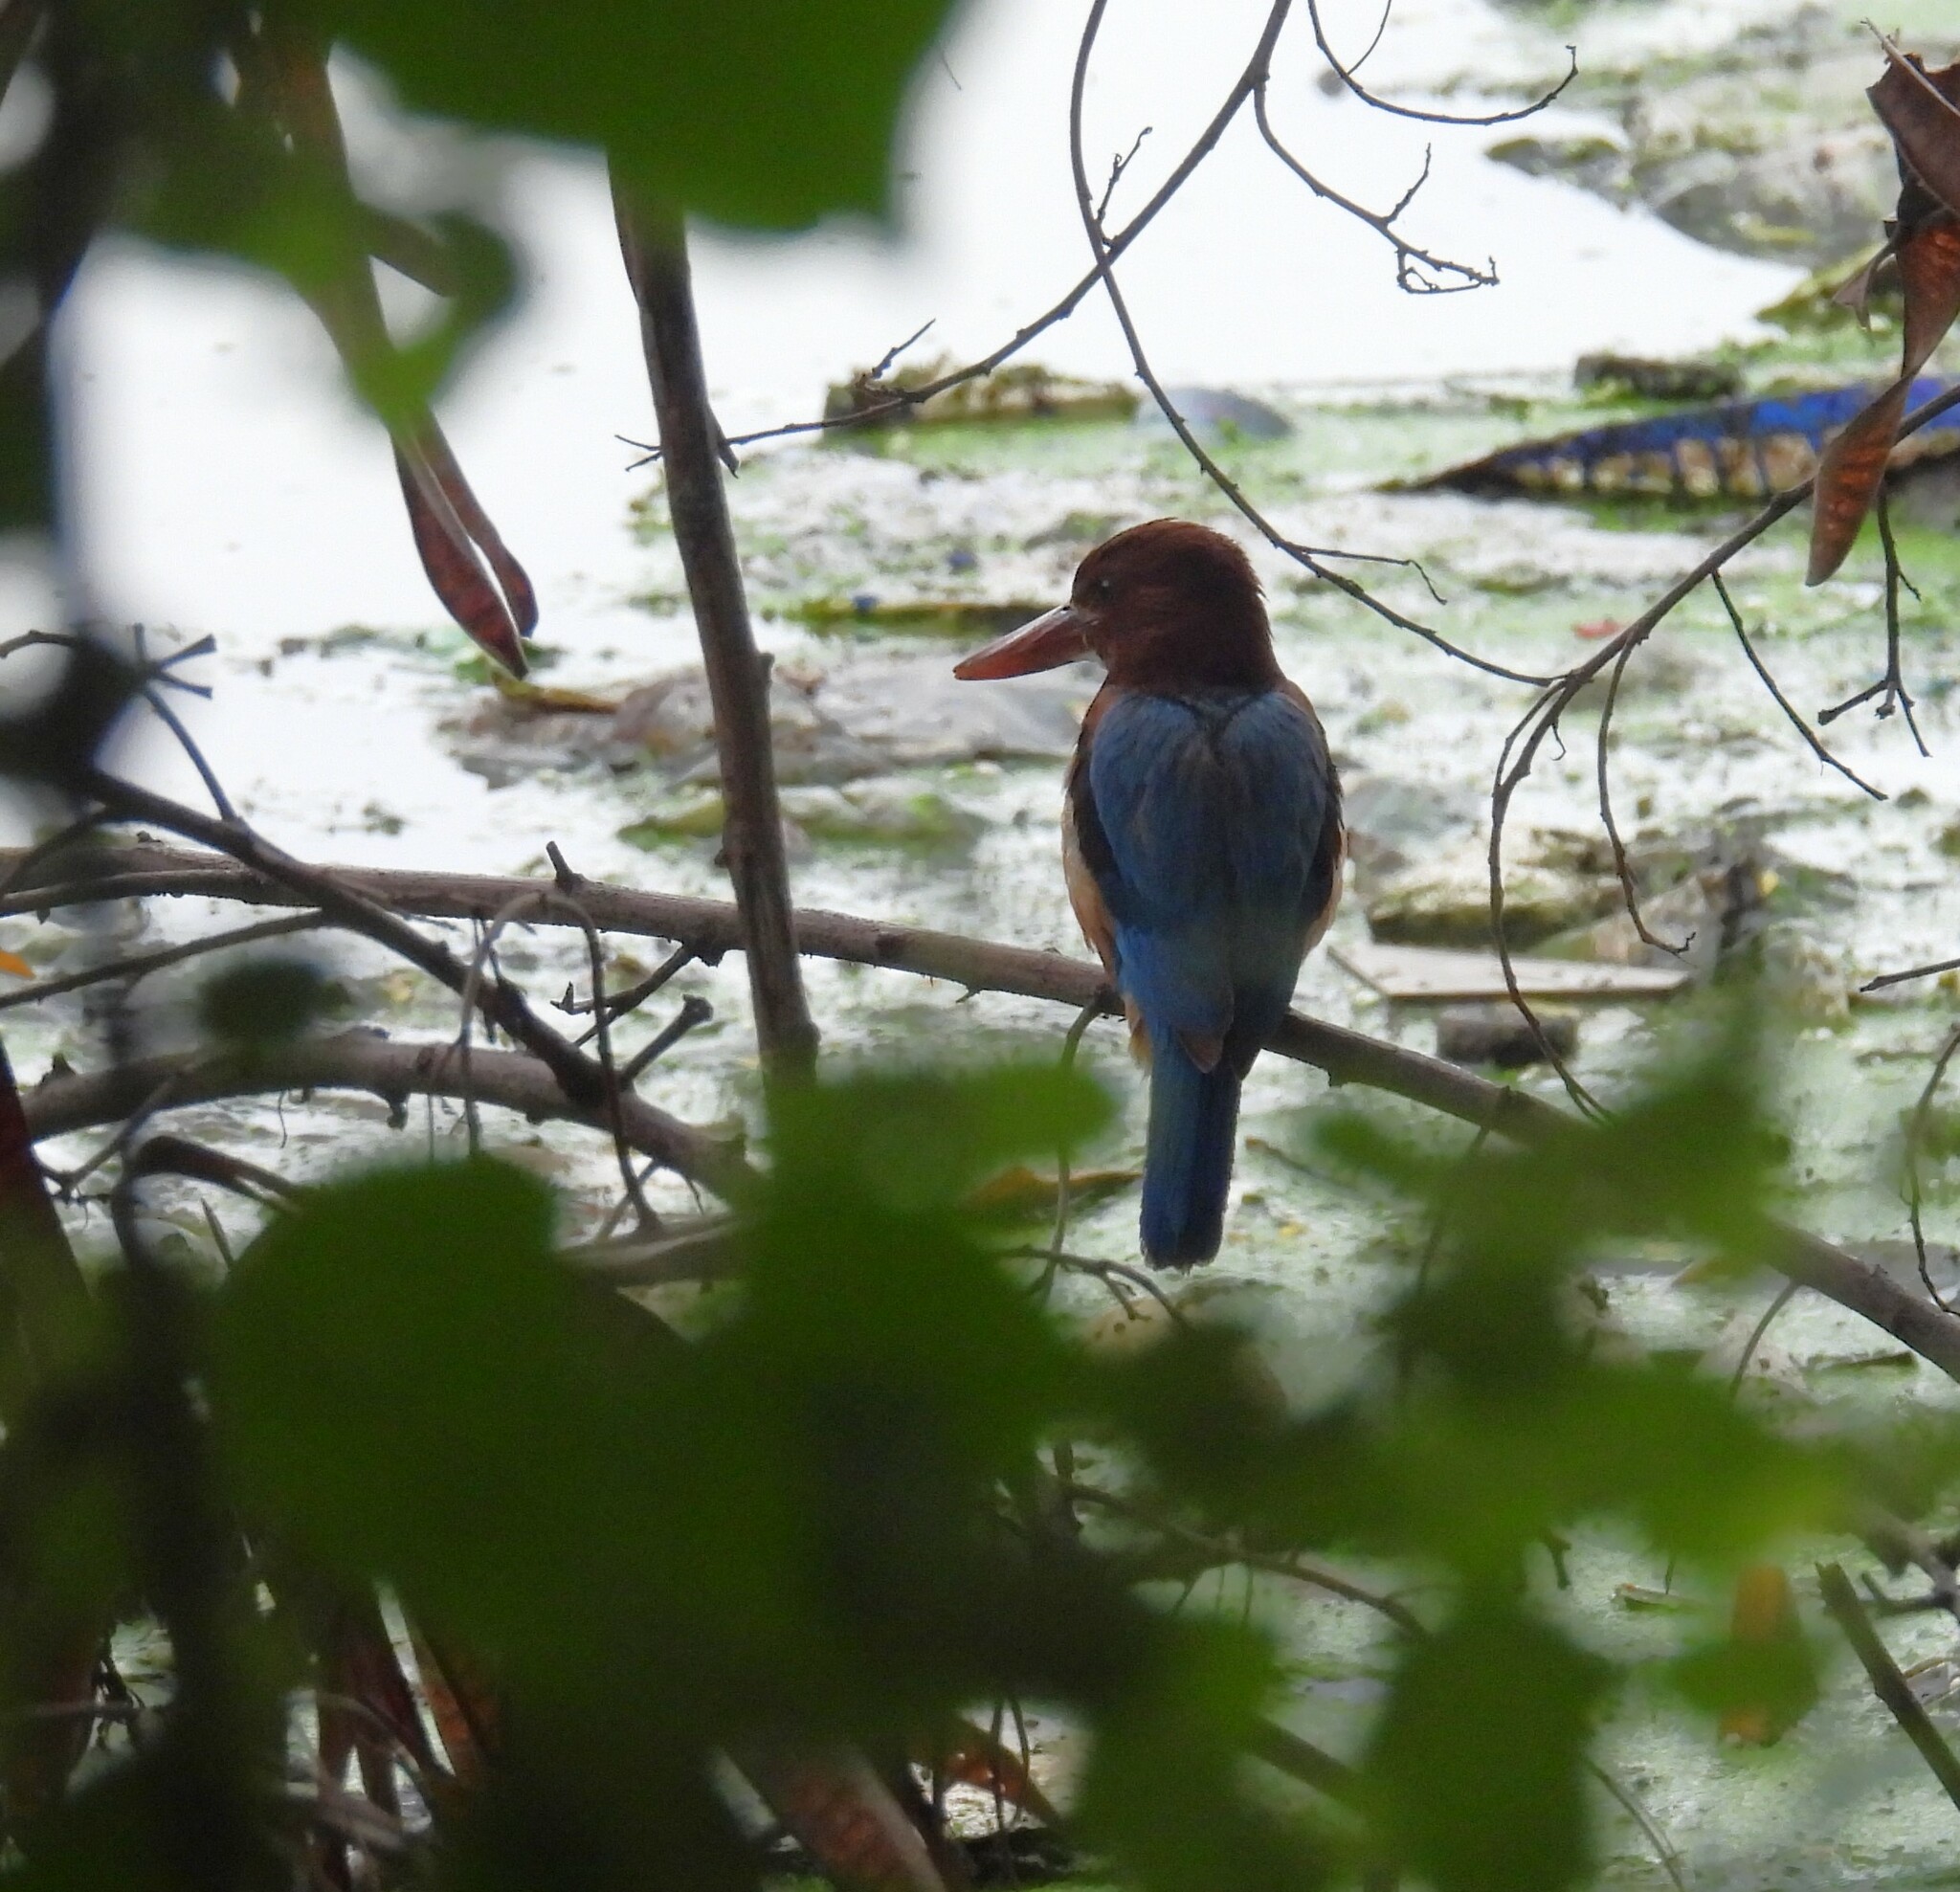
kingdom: Animalia
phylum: Chordata
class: Aves
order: Coraciiformes
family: Alcedinidae
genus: Halcyon
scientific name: Halcyon smyrnensis
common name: White-throated kingfisher
